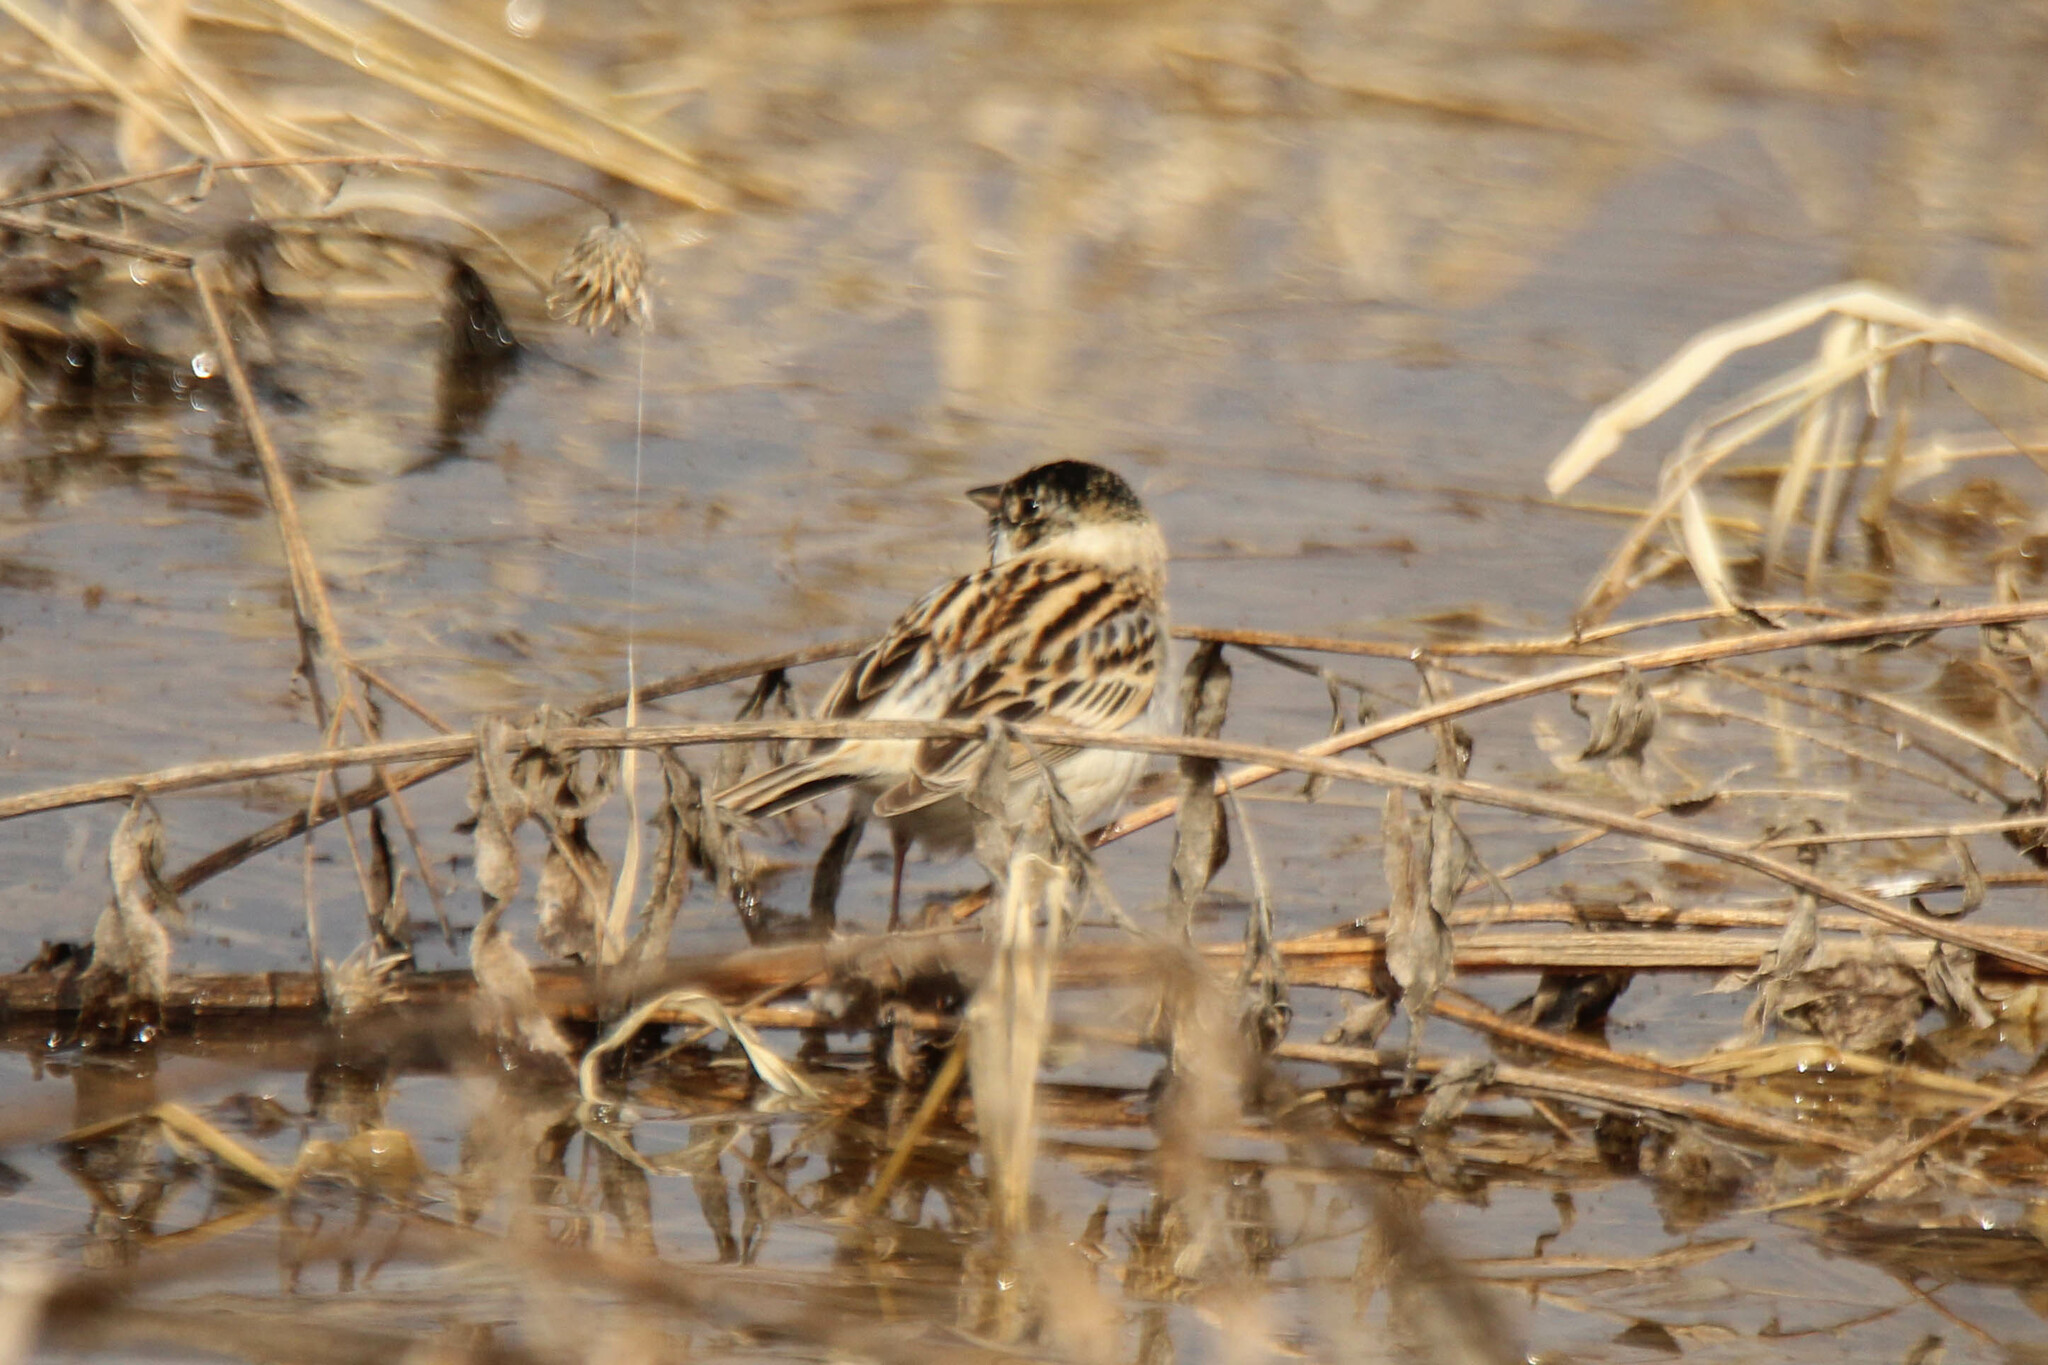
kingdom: Animalia
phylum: Chordata
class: Aves
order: Passeriformes
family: Emberizidae
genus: Emberiza
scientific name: Emberiza pallasi
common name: Pallas's reed bunting
